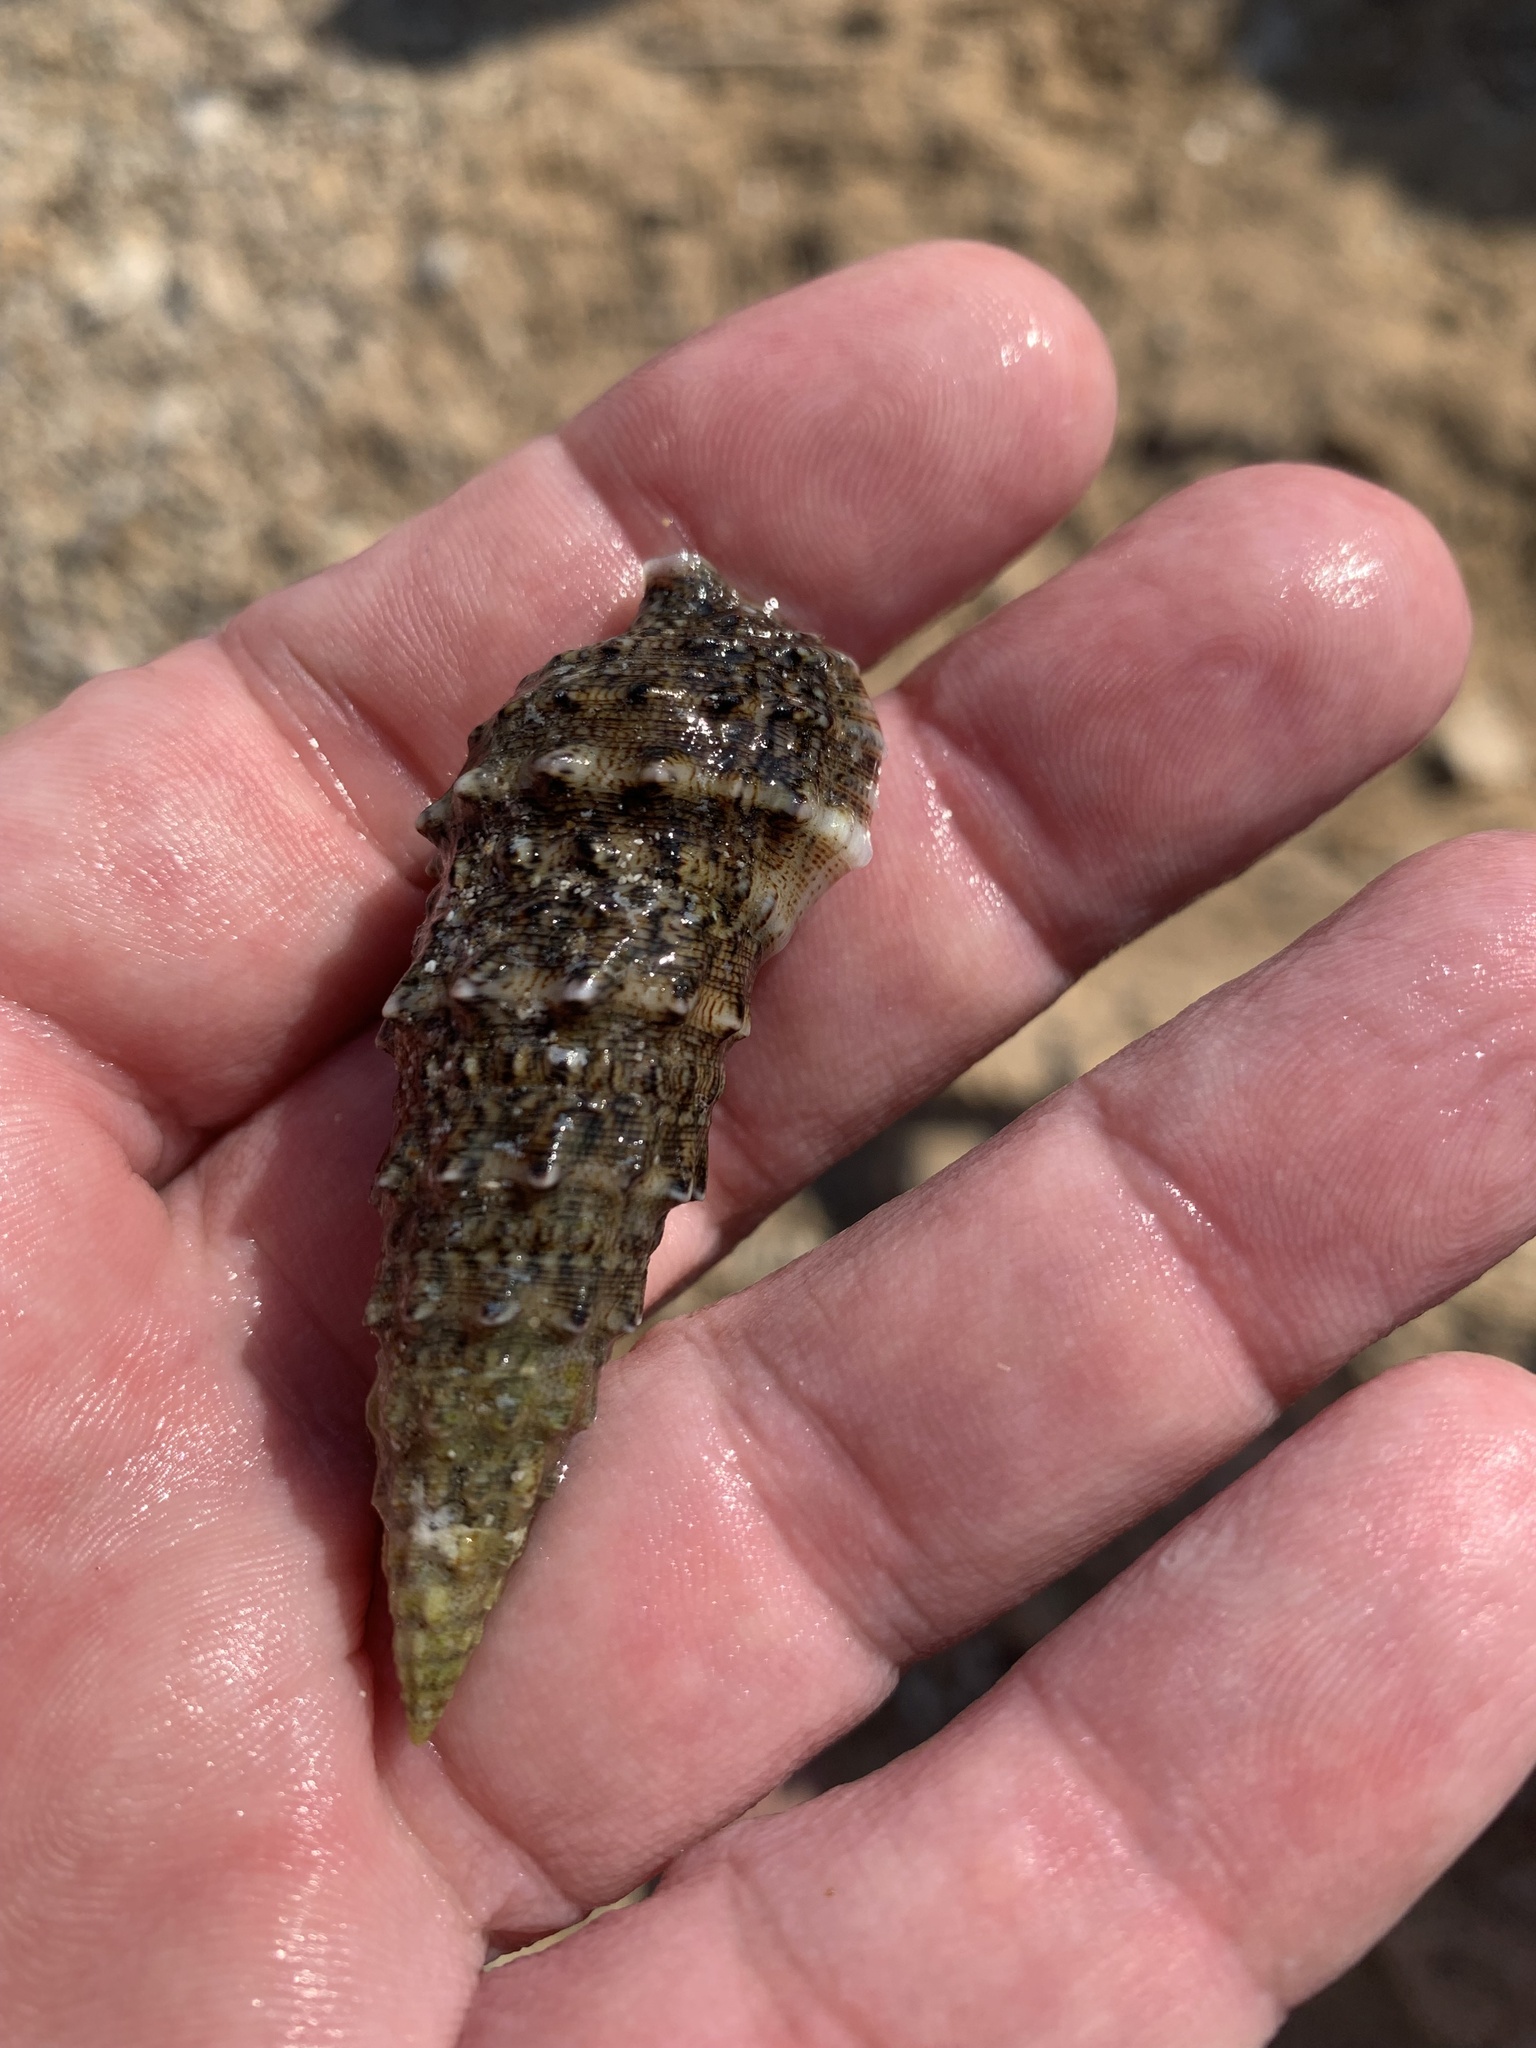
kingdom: Animalia
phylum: Mollusca
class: Gastropoda
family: Cerithiidae
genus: Cerithium
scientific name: Cerithium vulgatum
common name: European cerith
